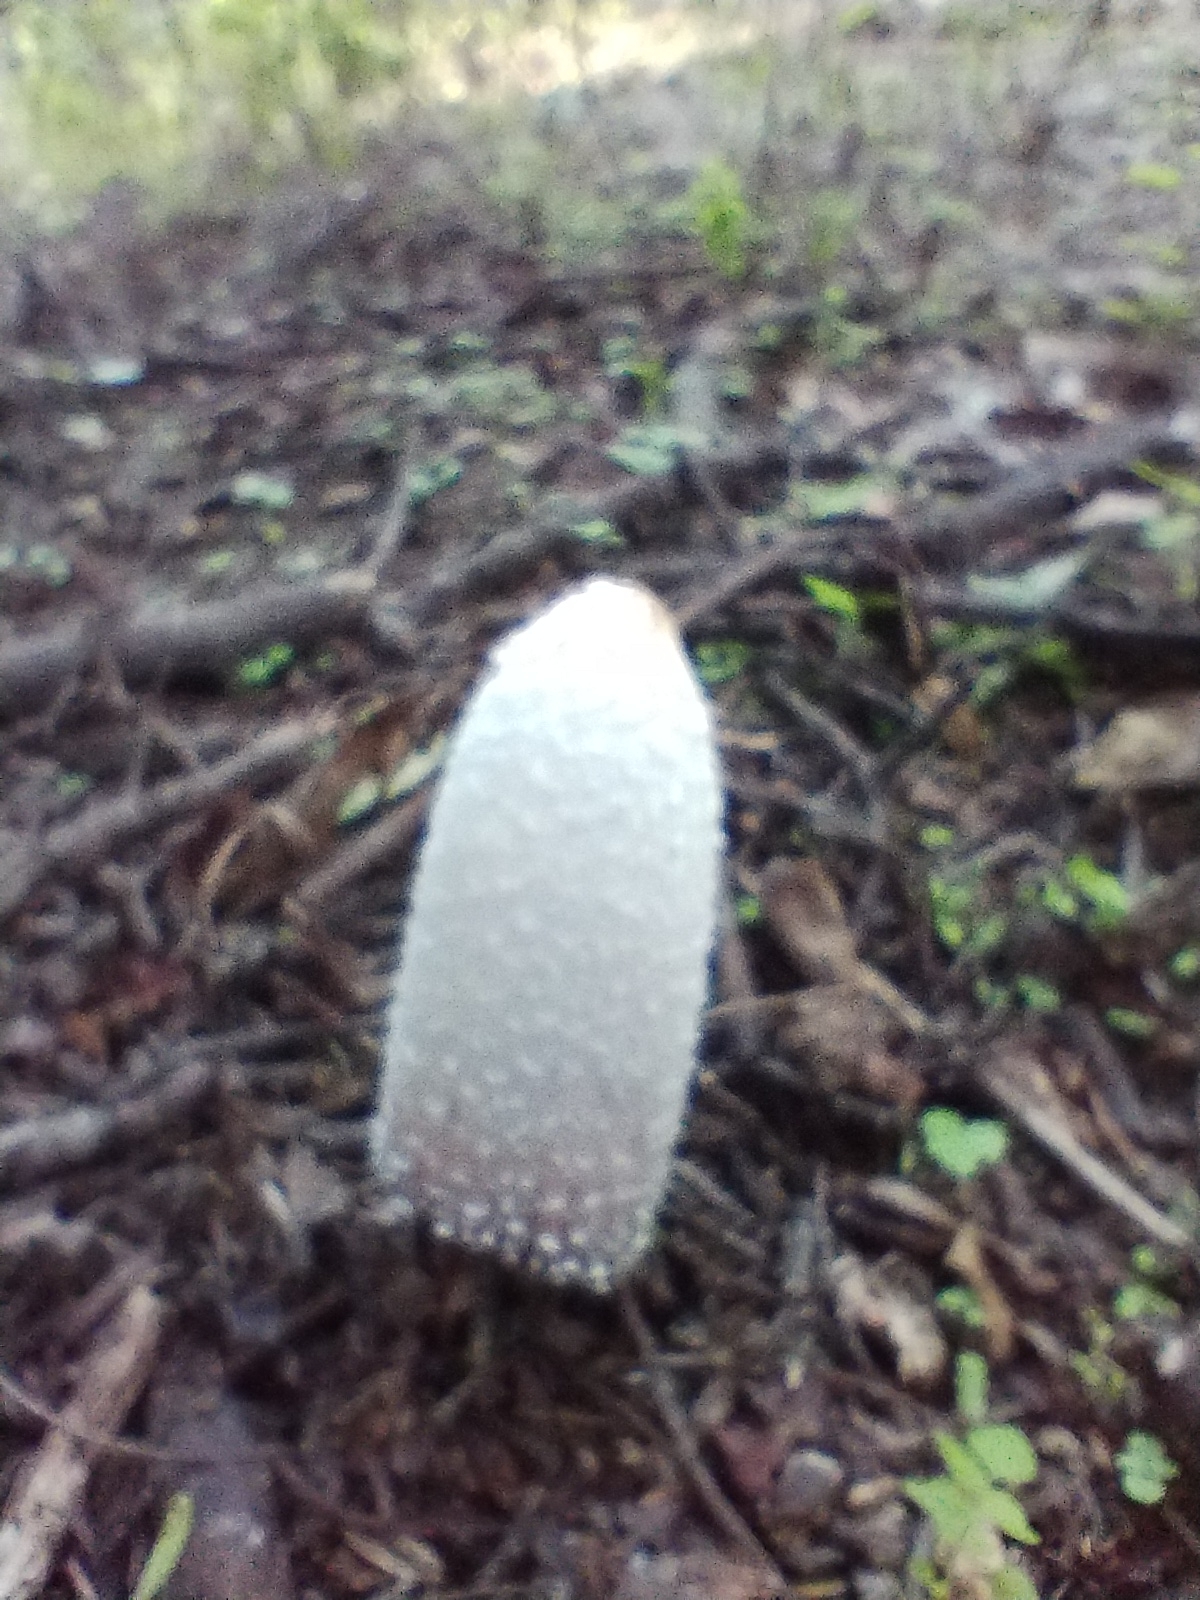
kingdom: Fungi
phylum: Basidiomycota
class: Agaricomycetes
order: Agaricales
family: Agaricaceae
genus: Coprinus
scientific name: Coprinus comatus
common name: Lawyer's wig
